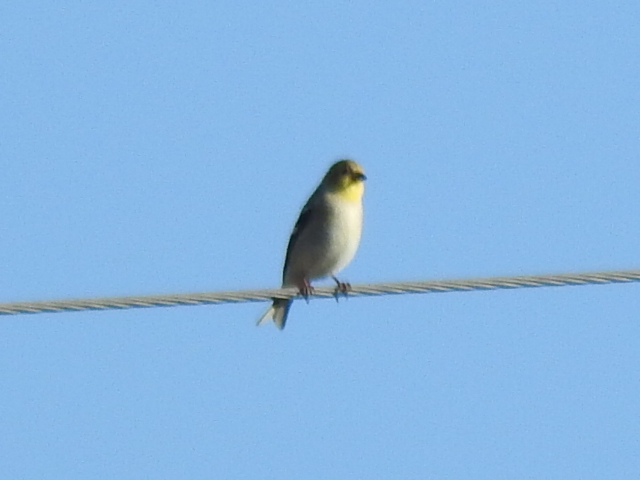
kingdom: Animalia
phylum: Chordata
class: Aves
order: Passeriformes
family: Fringillidae
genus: Spinus
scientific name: Spinus tristis
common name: American goldfinch
